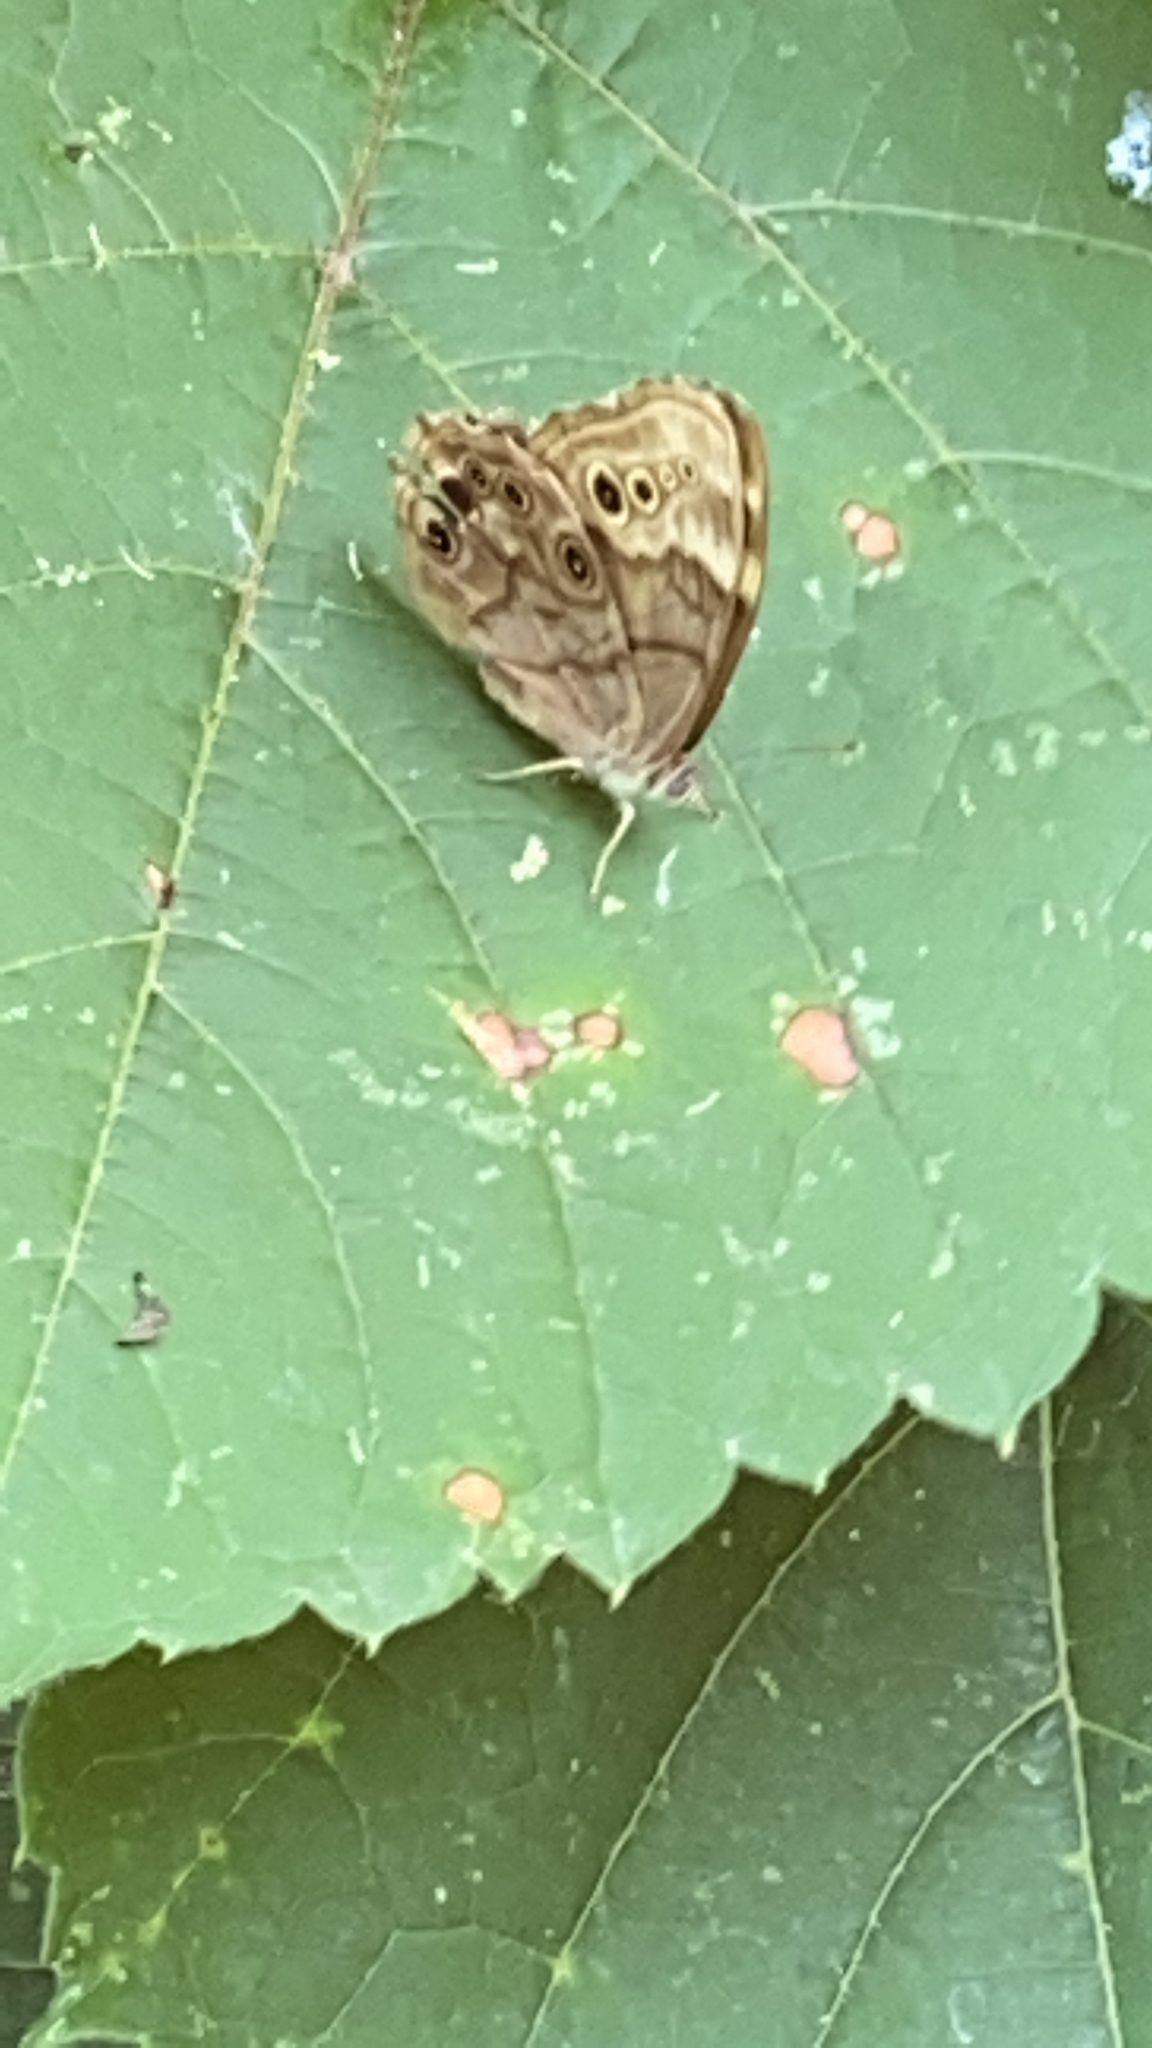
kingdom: Animalia
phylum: Arthropoda
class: Insecta
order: Lepidoptera
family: Nymphalidae
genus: Lethe
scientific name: Lethe anthedon
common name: Northern pearly-eye
